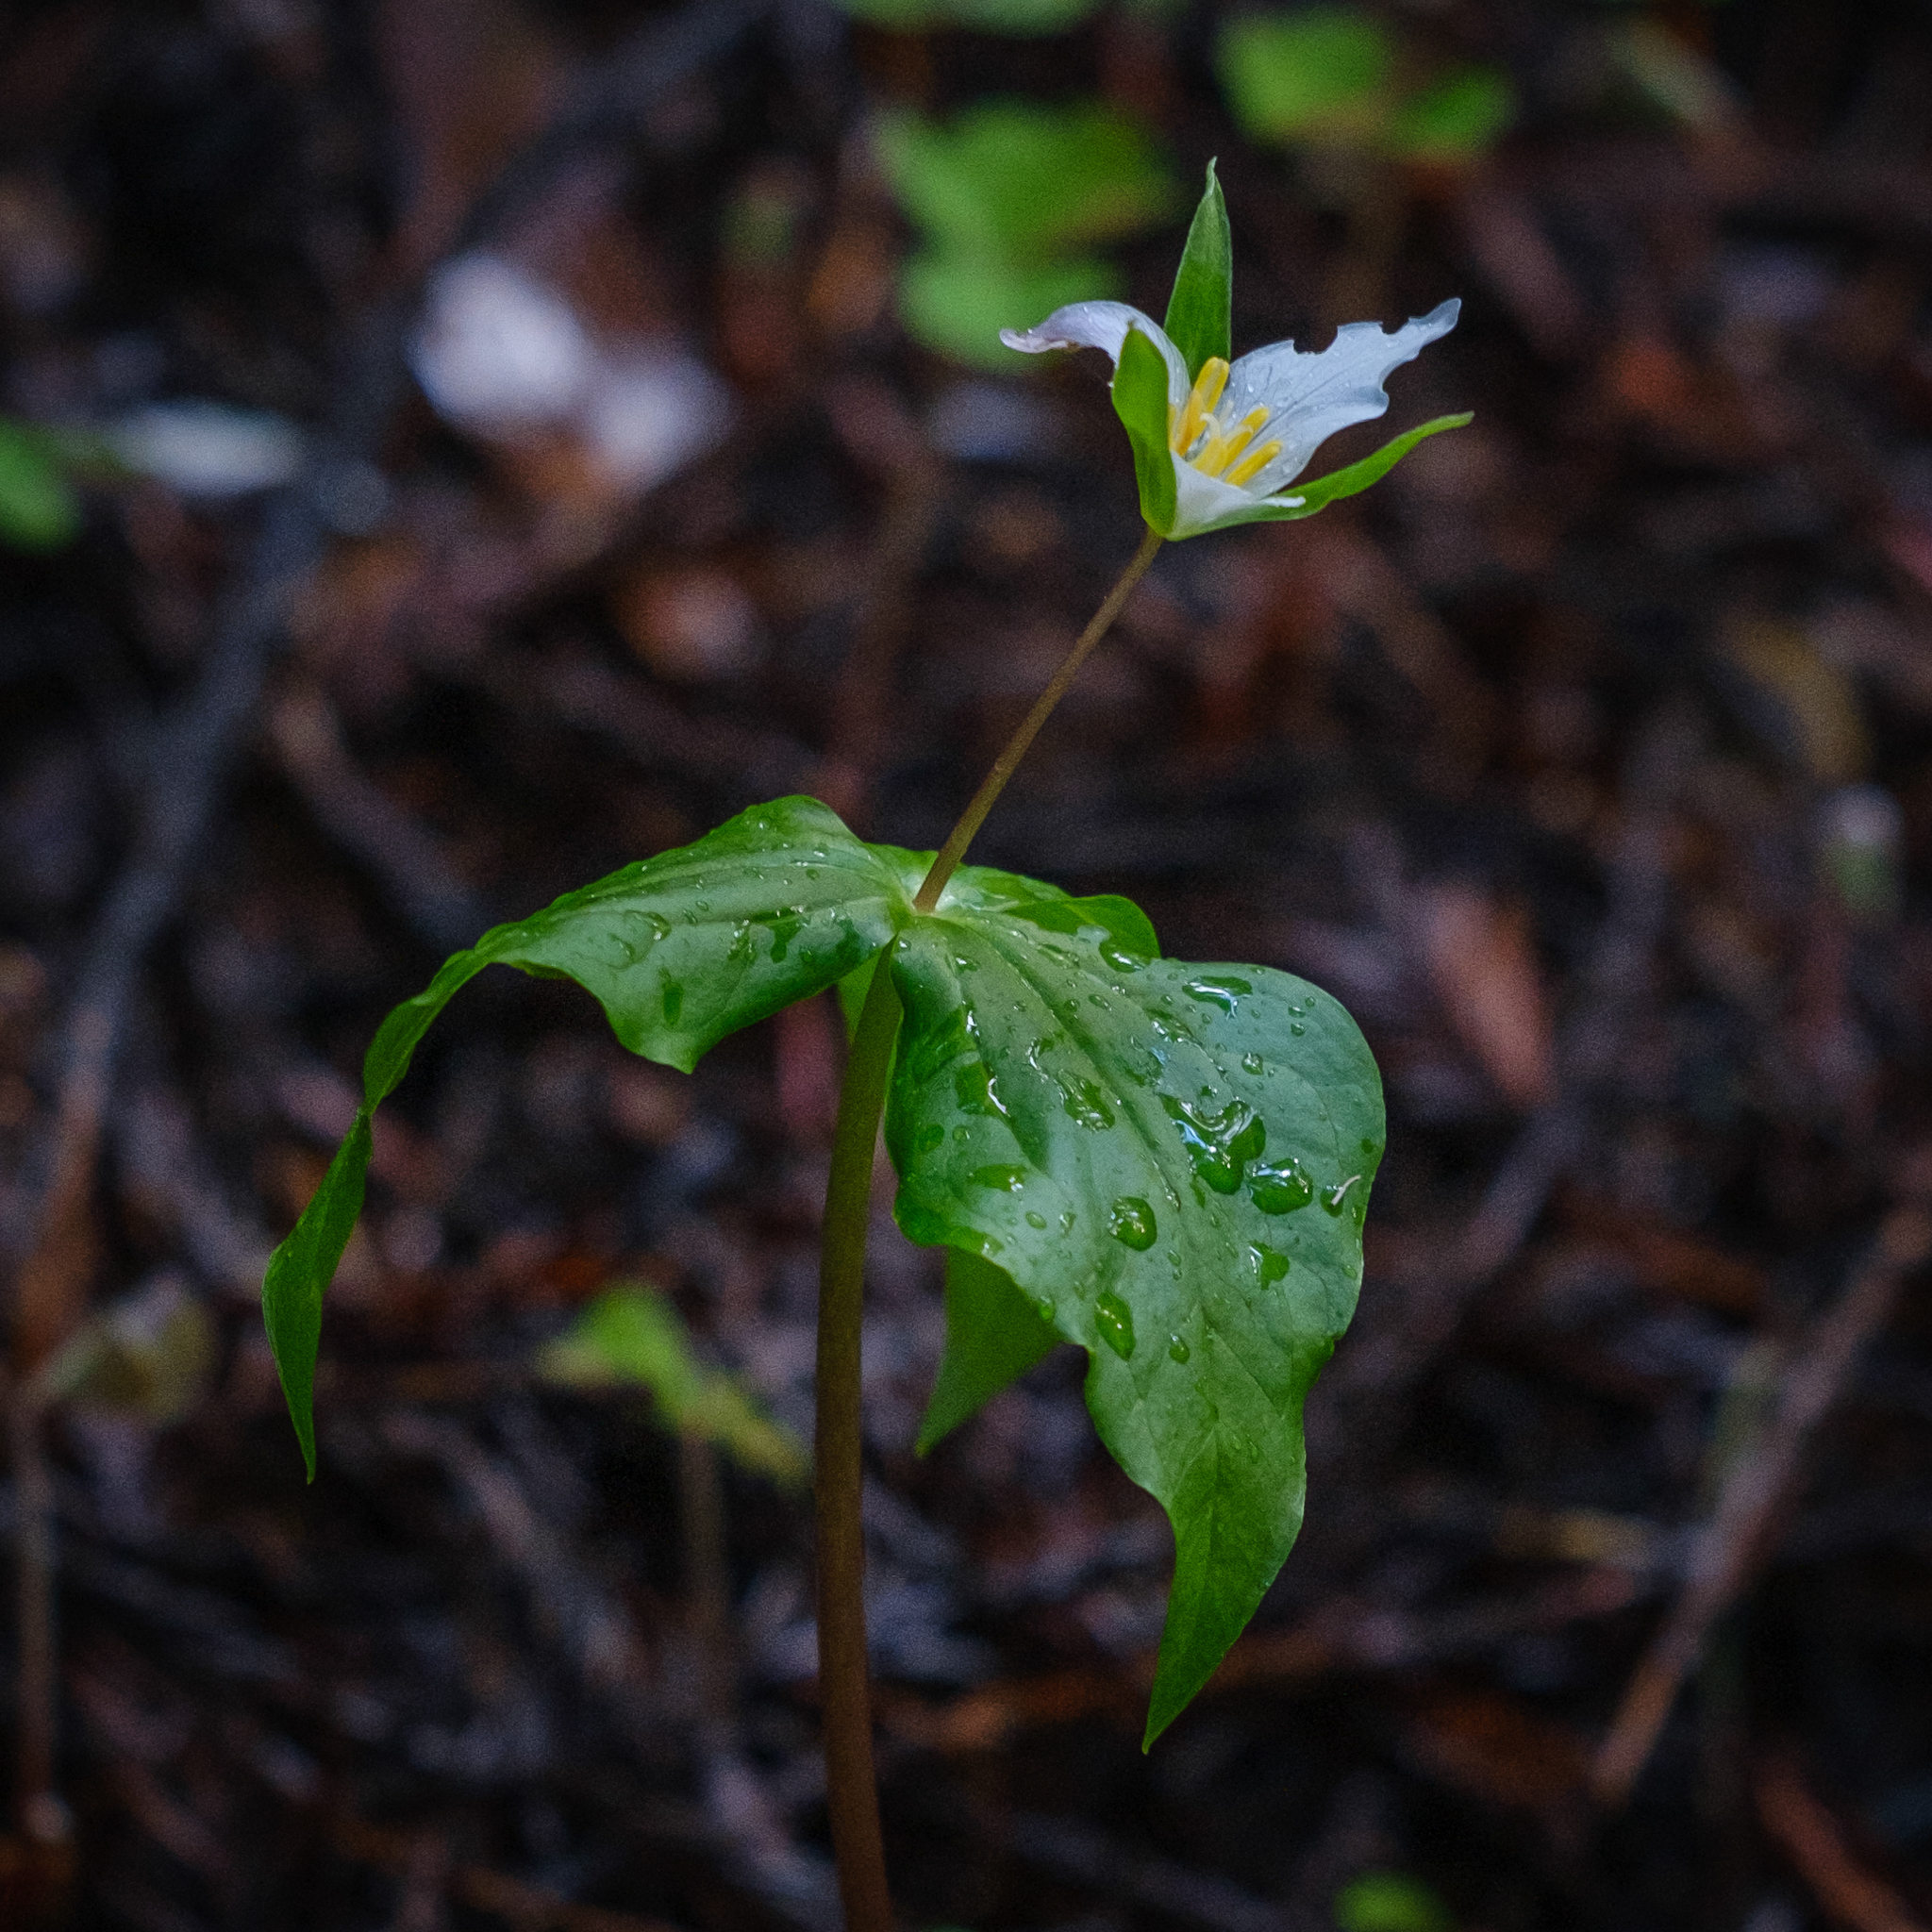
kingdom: Plantae
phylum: Tracheophyta
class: Liliopsida
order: Liliales
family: Melanthiaceae
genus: Trillium
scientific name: Trillium ovatum
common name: Pacific trillium
